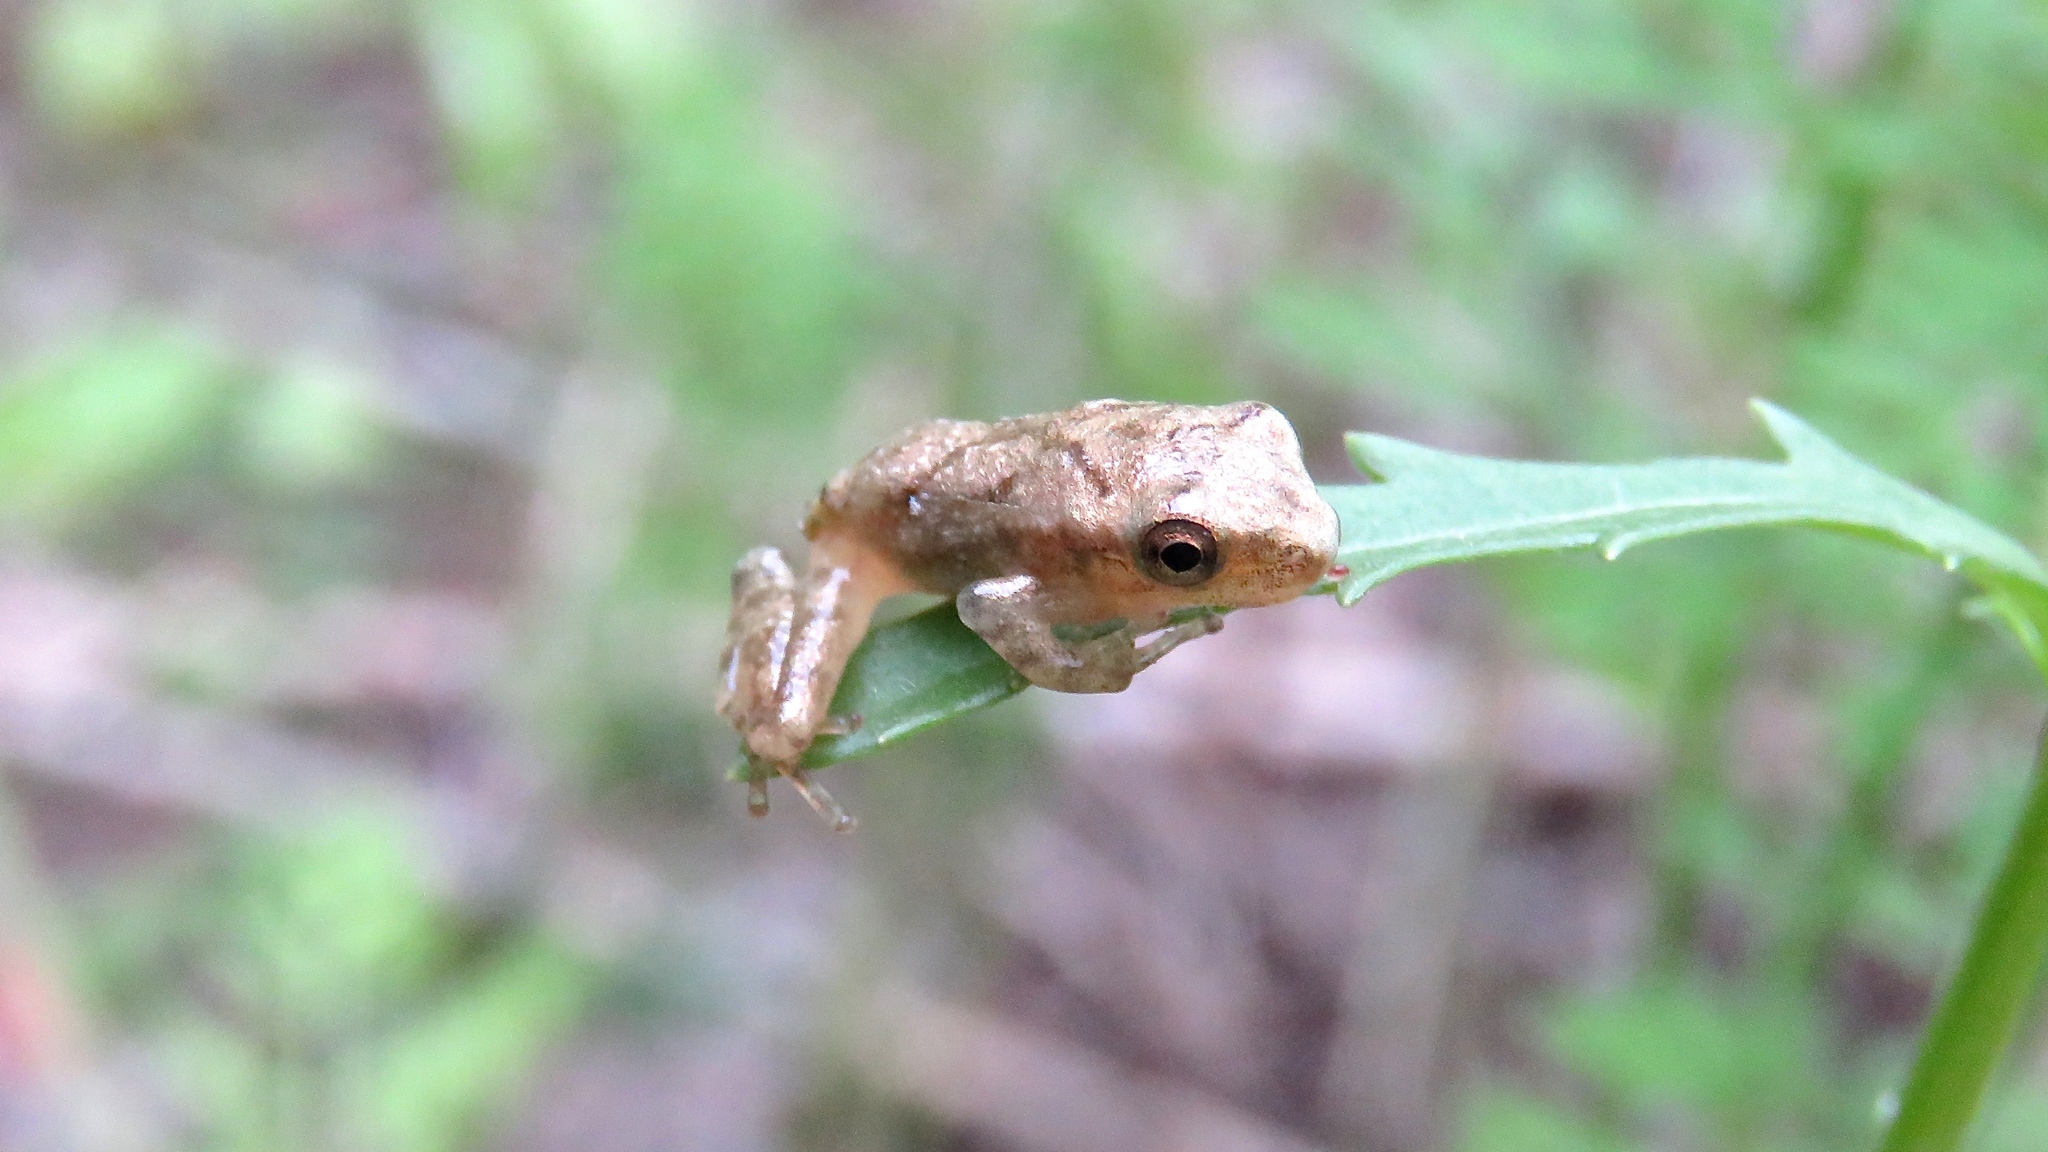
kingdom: Animalia
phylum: Chordata
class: Amphibia
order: Anura
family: Hylidae
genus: Pseudacris
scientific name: Pseudacris crucifer
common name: Spring peeper
